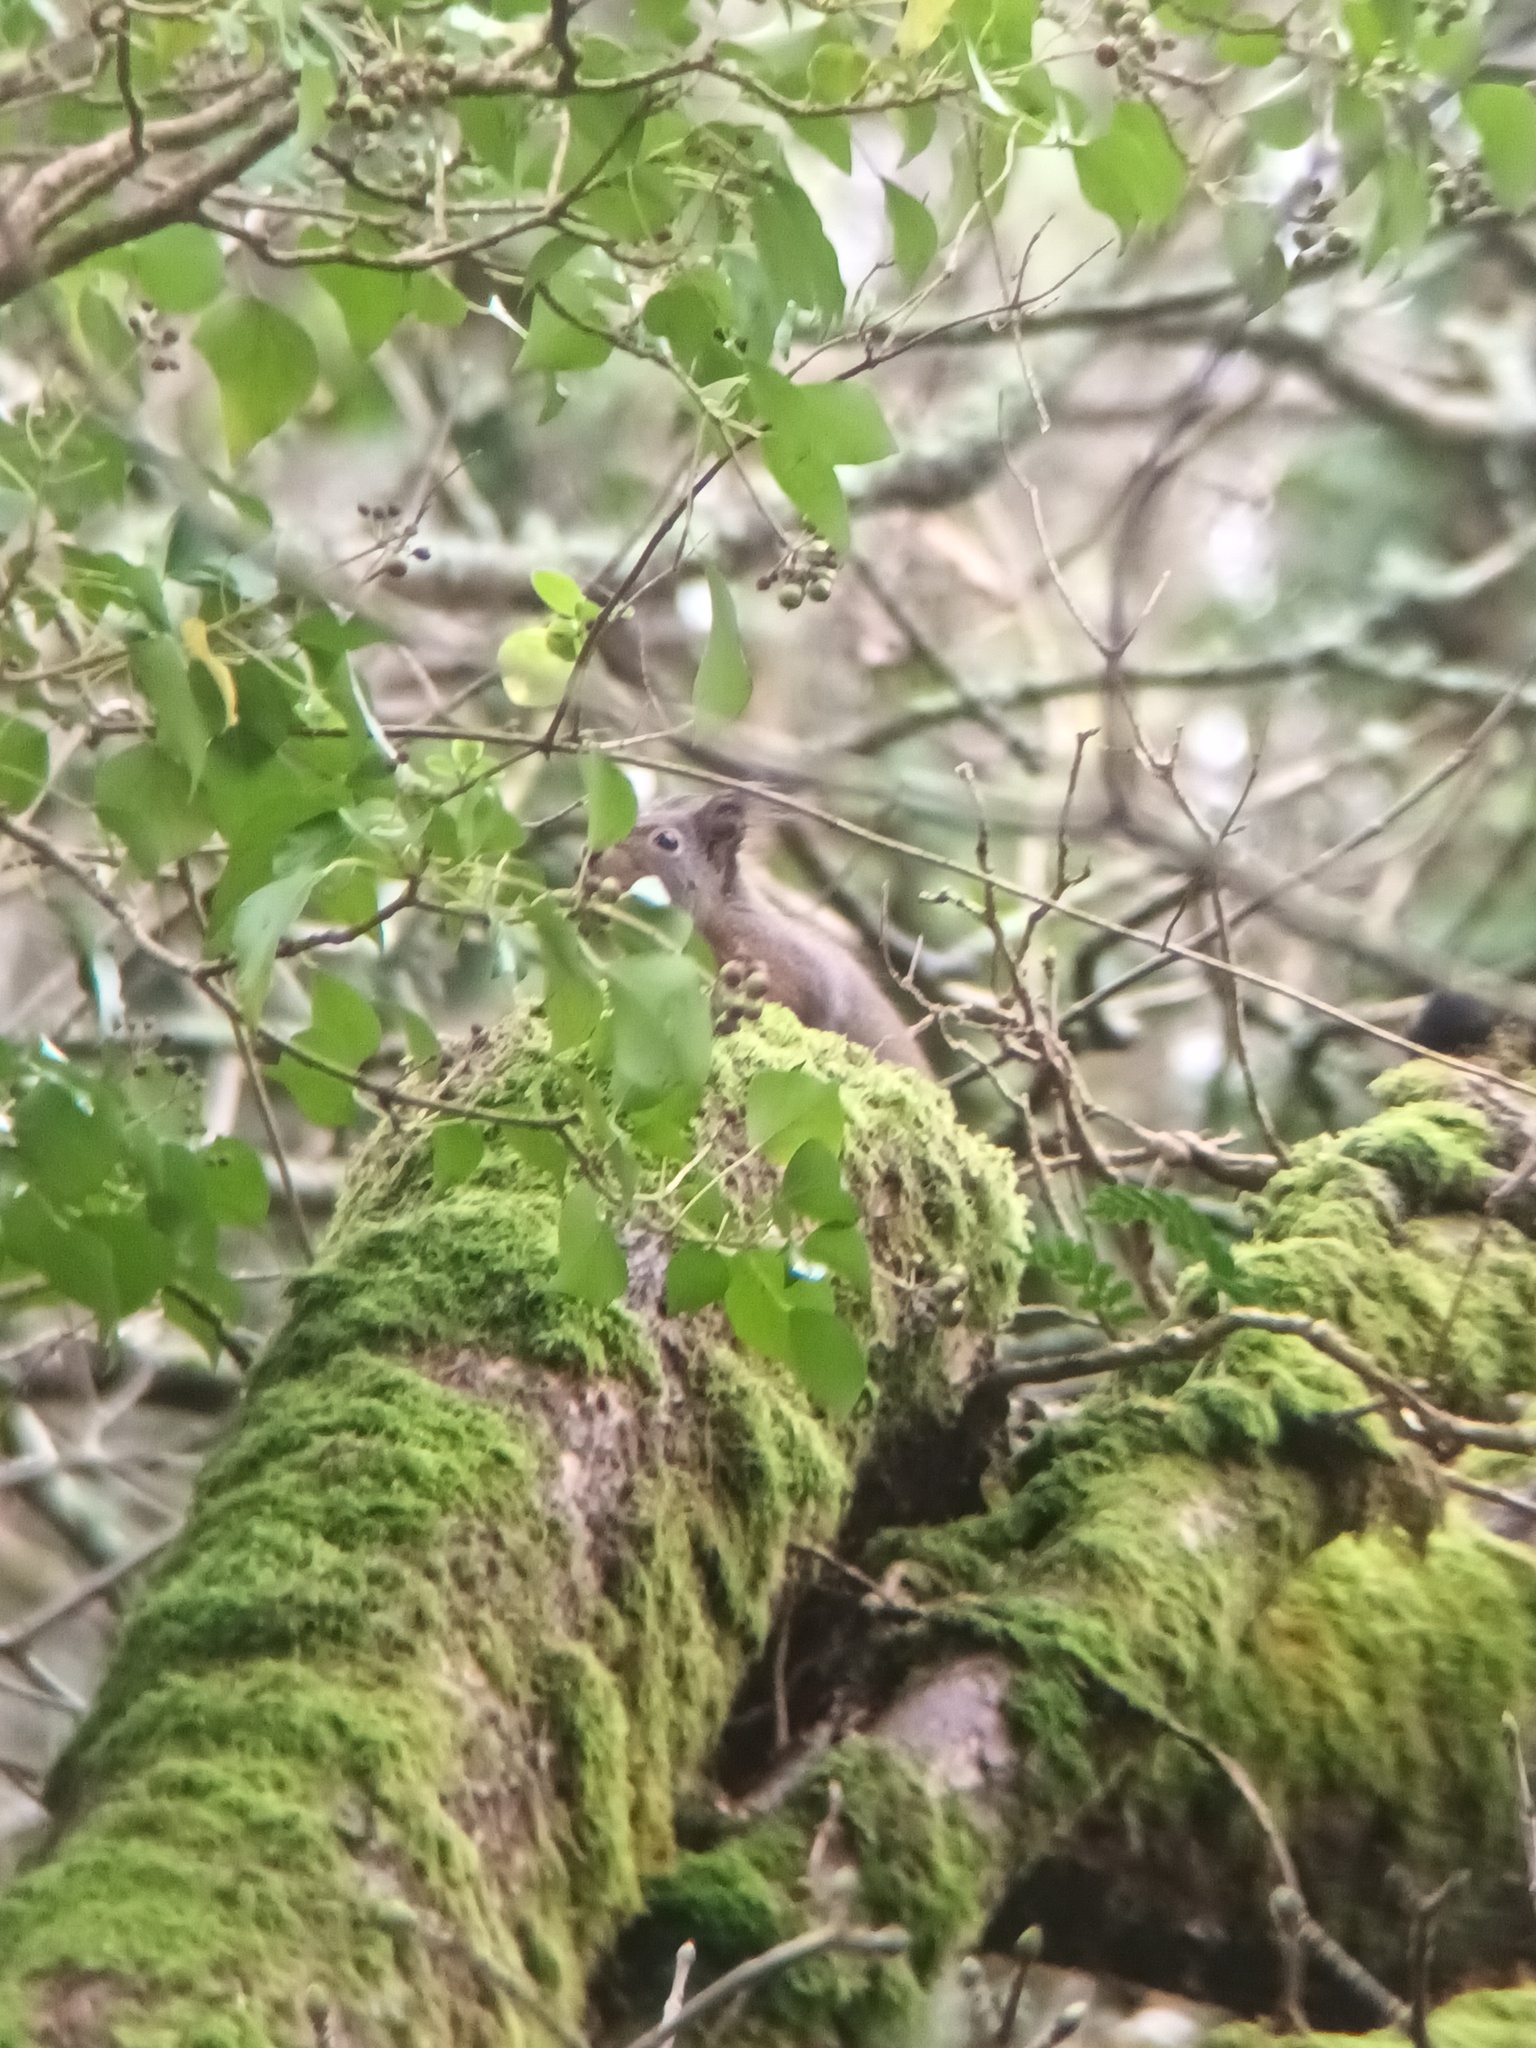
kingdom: Animalia
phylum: Chordata
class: Mammalia
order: Rodentia
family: Sciuridae
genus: Sciurus
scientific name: Sciurus vulgaris
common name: Eurasian red squirrel
